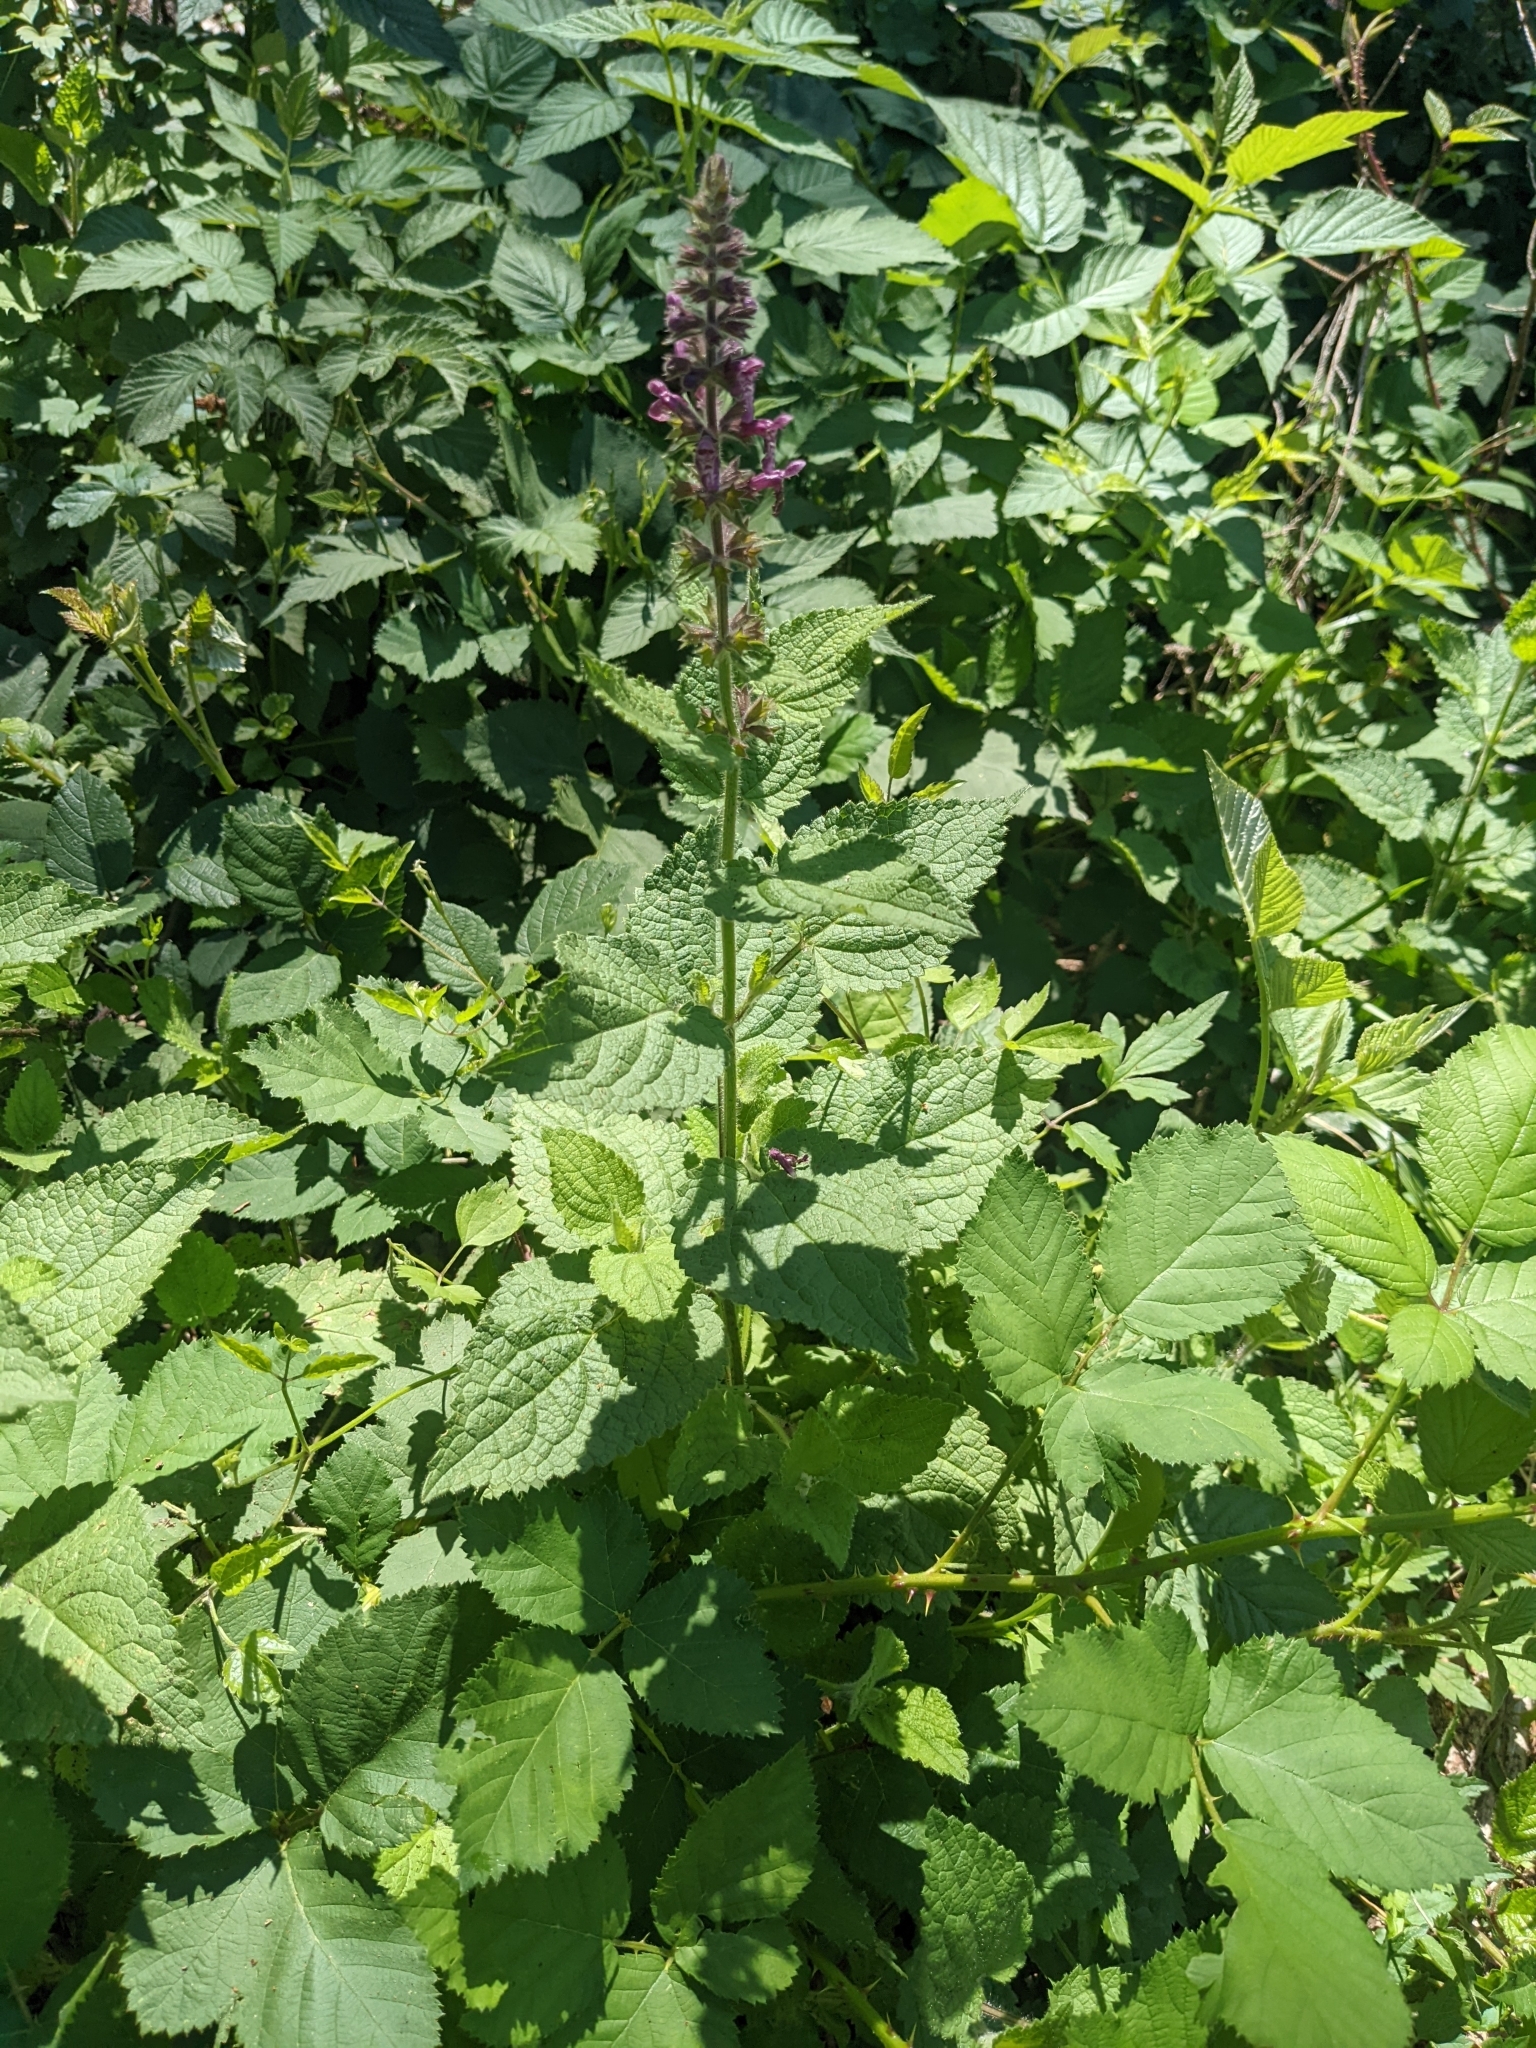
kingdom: Plantae
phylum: Tracheophyta
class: Magnoliopsida
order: Lamiales
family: Lamiaceae
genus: Stachys
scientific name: Stachys sylvatica
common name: Hedge woundwort
